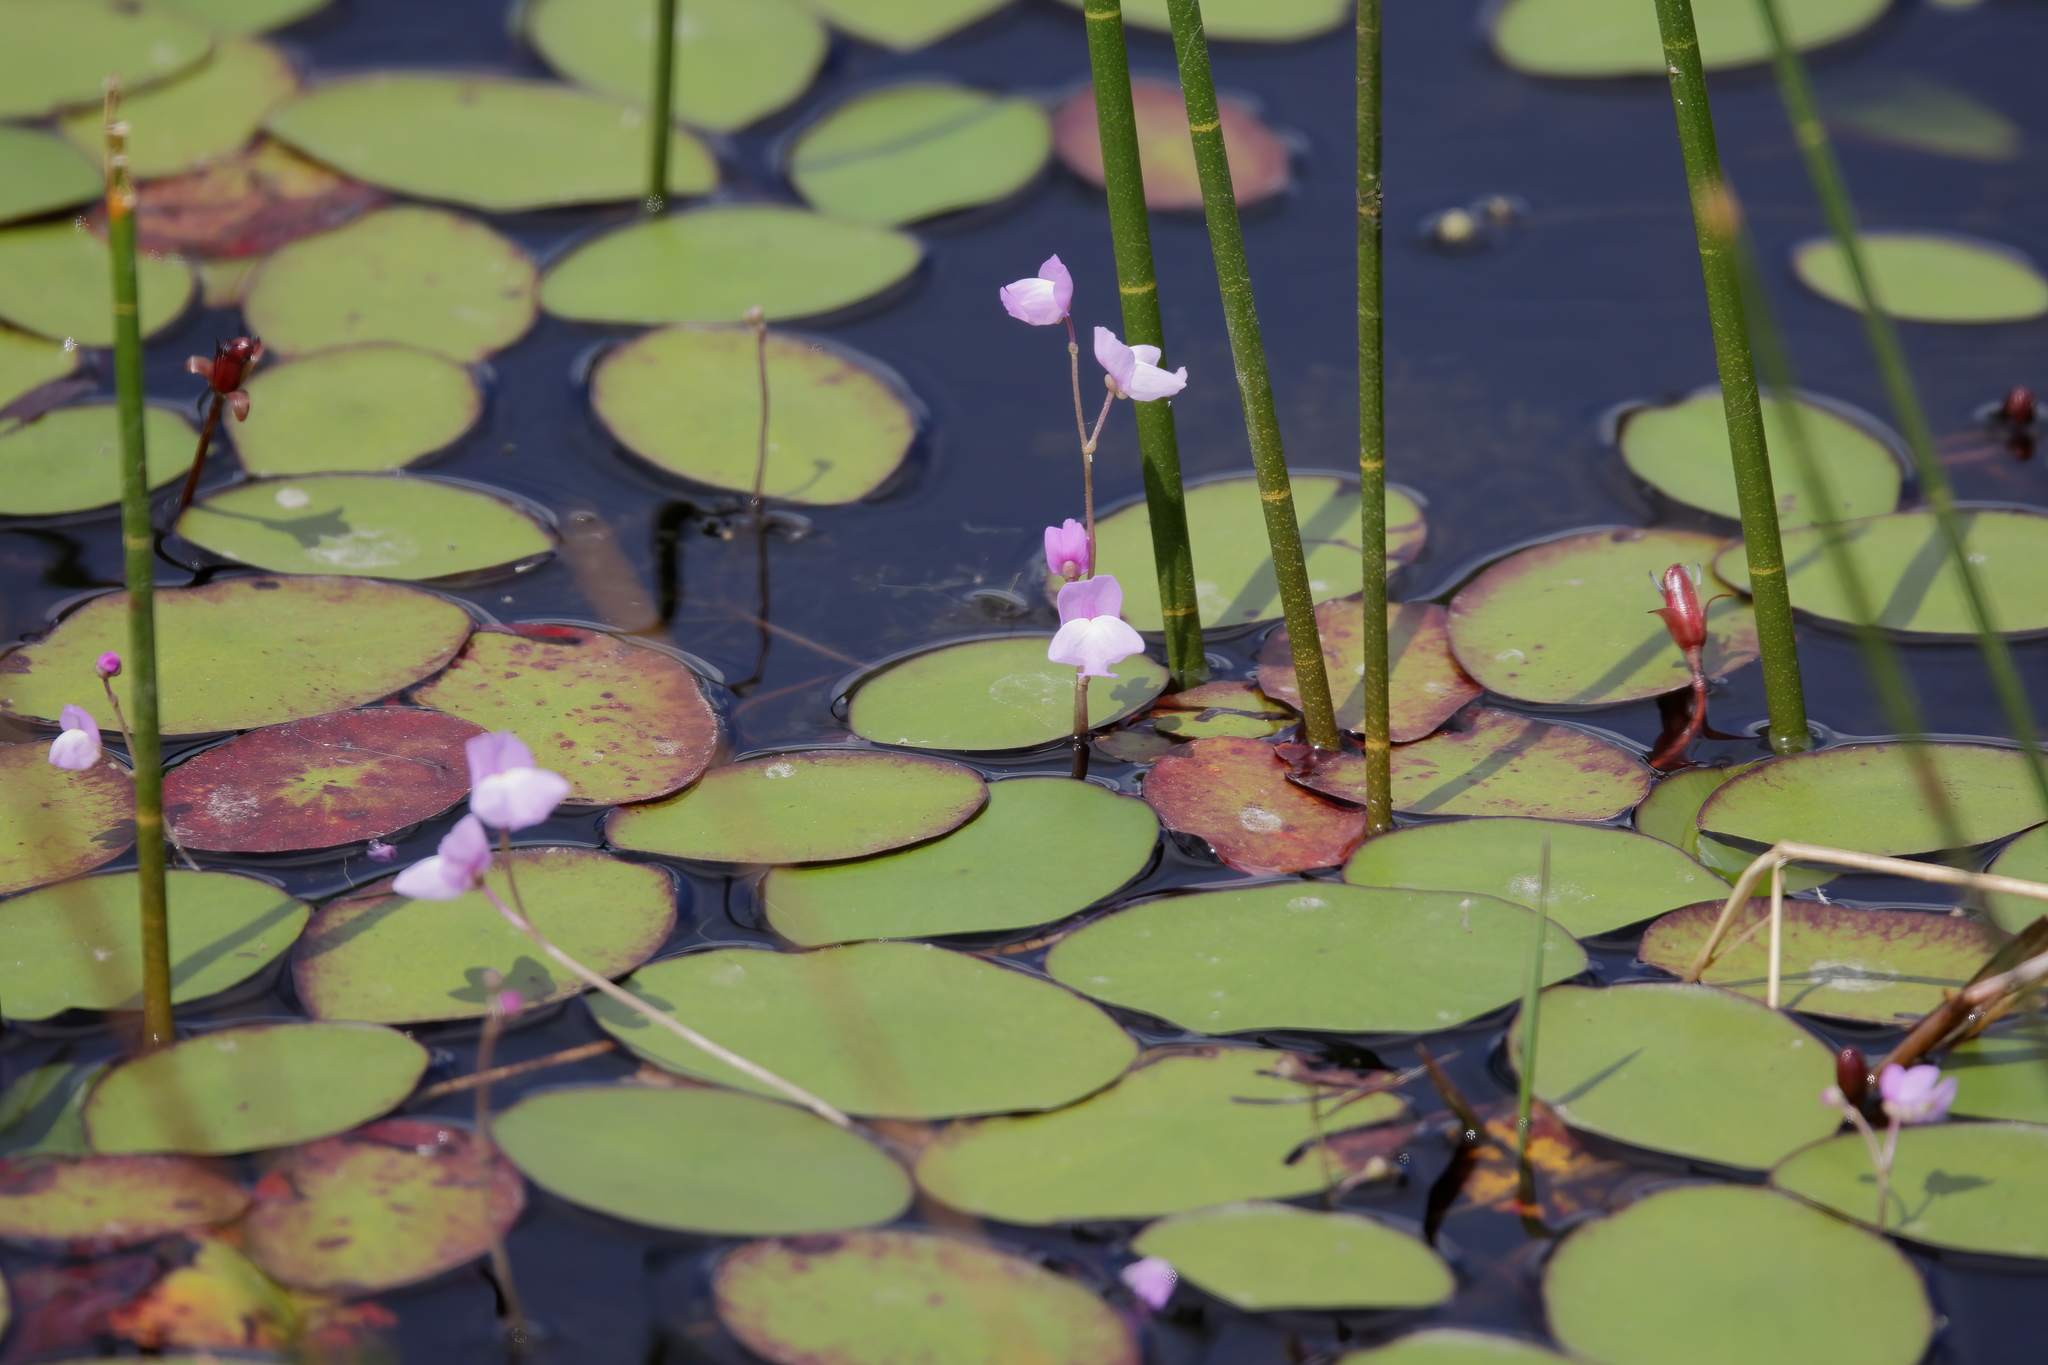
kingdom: Plantae
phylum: Tracheophyta
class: Magnoliopsida
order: Lamiales
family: Lentibulariaceae
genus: Utricularia
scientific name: Utricularia purpurea
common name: Eastern purple bladderwort
